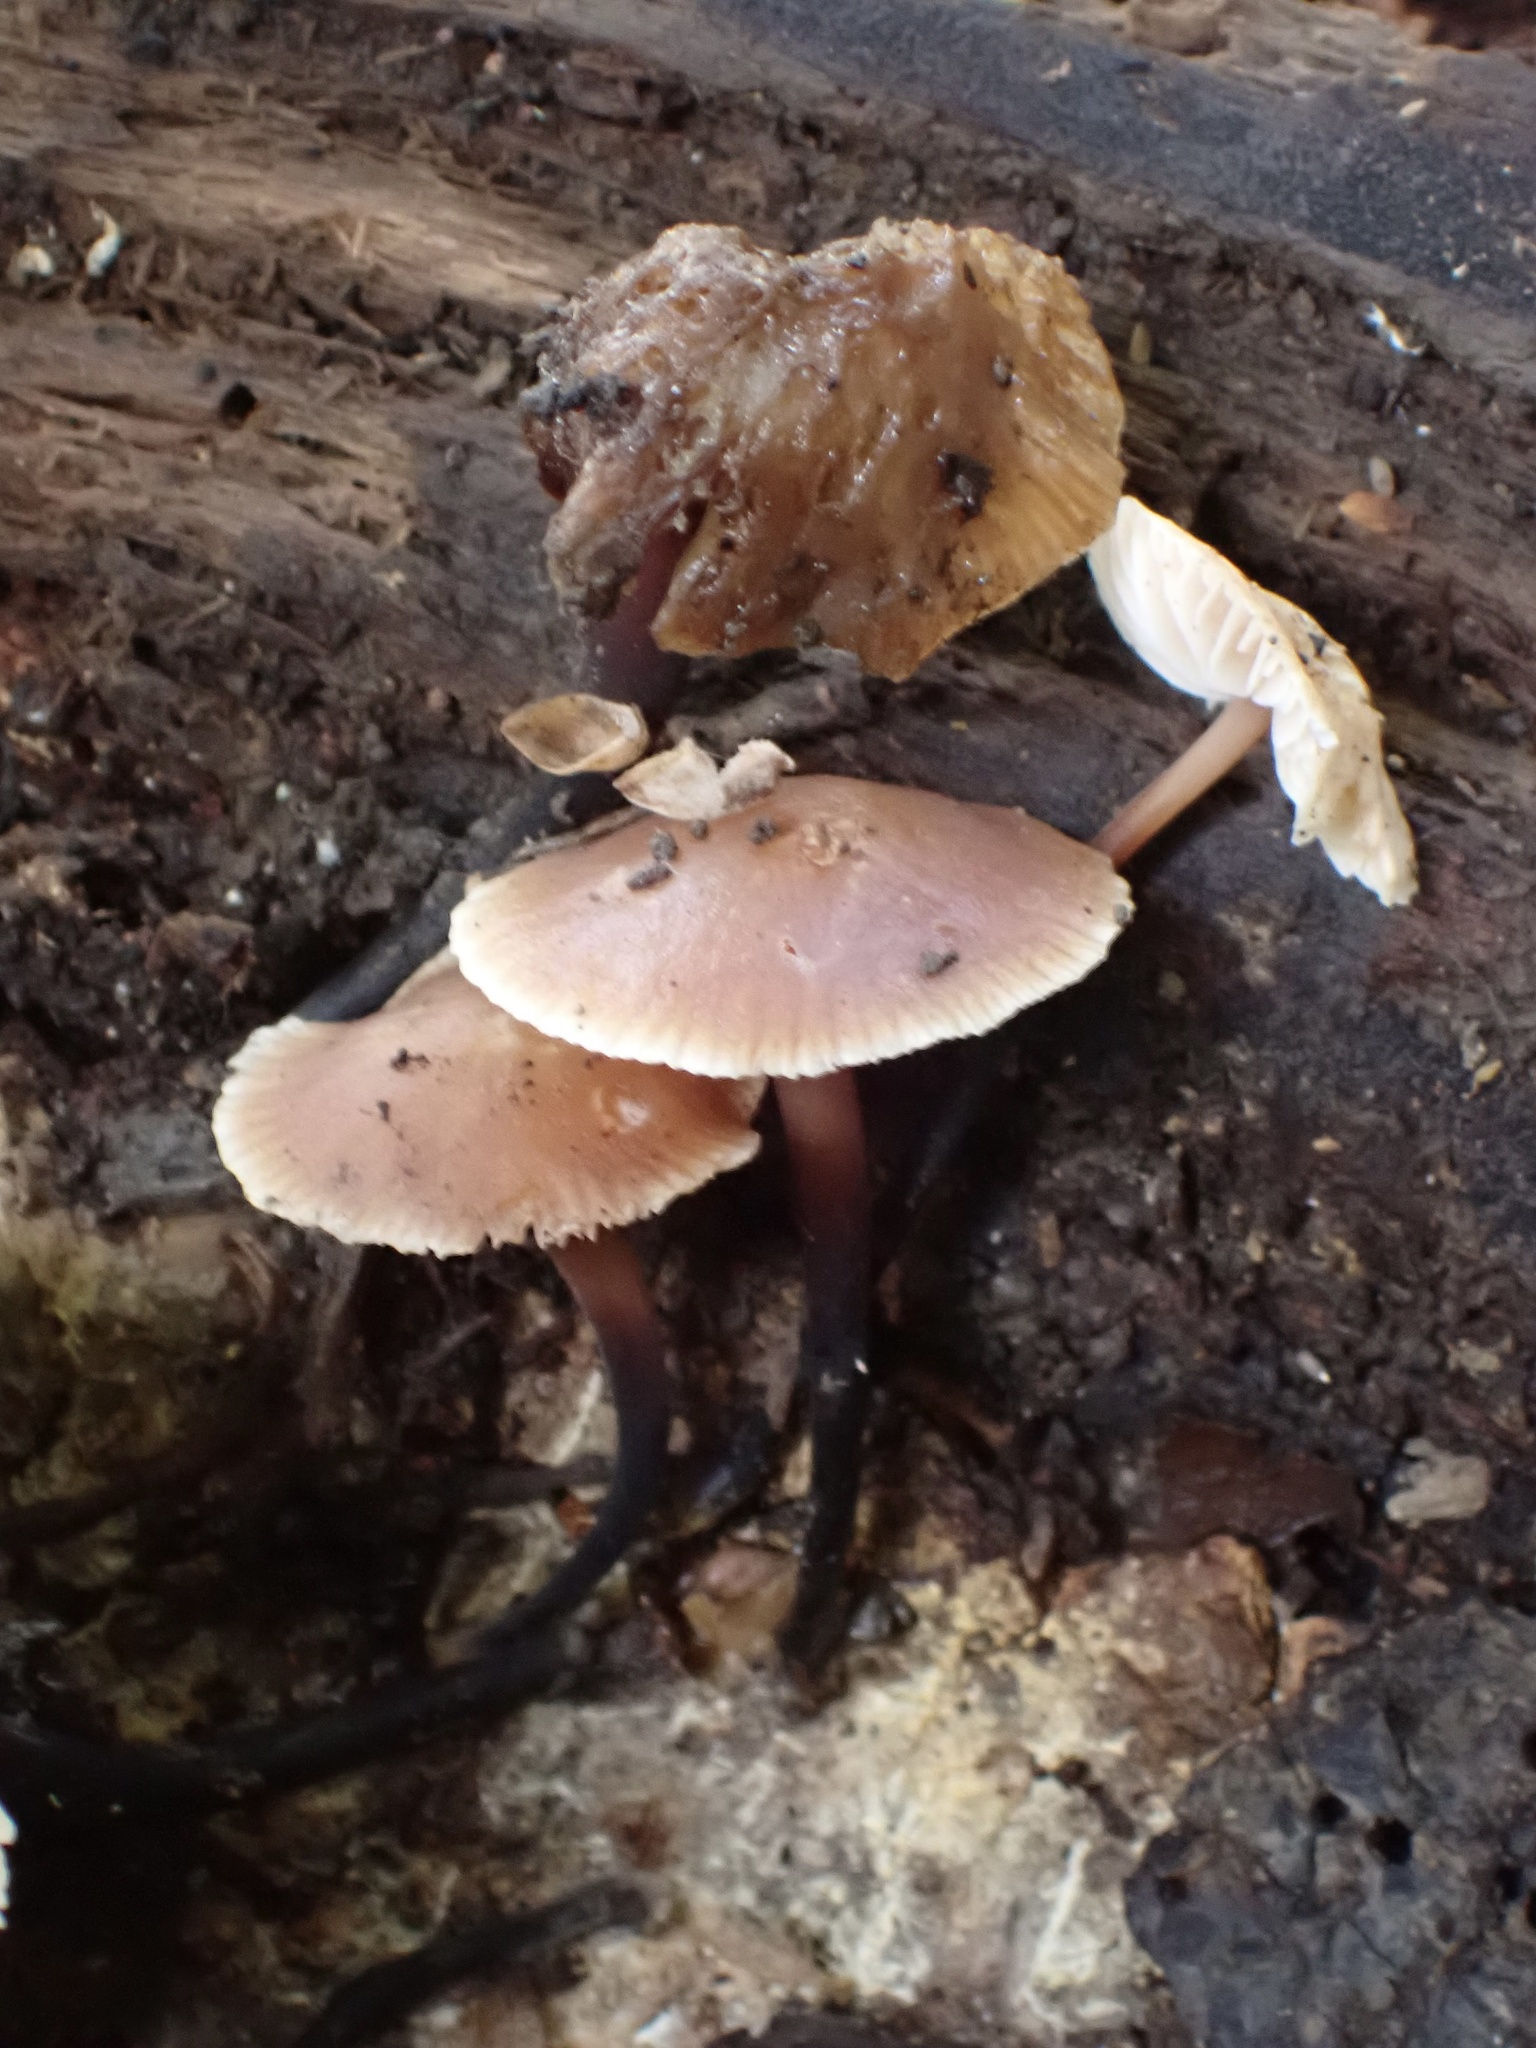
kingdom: Fungi
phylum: Basidiomycota
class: Agaricomycetes
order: Agaricales
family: Omphalotaceae
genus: Gymnopus
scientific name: Gymnopus brassicolens
